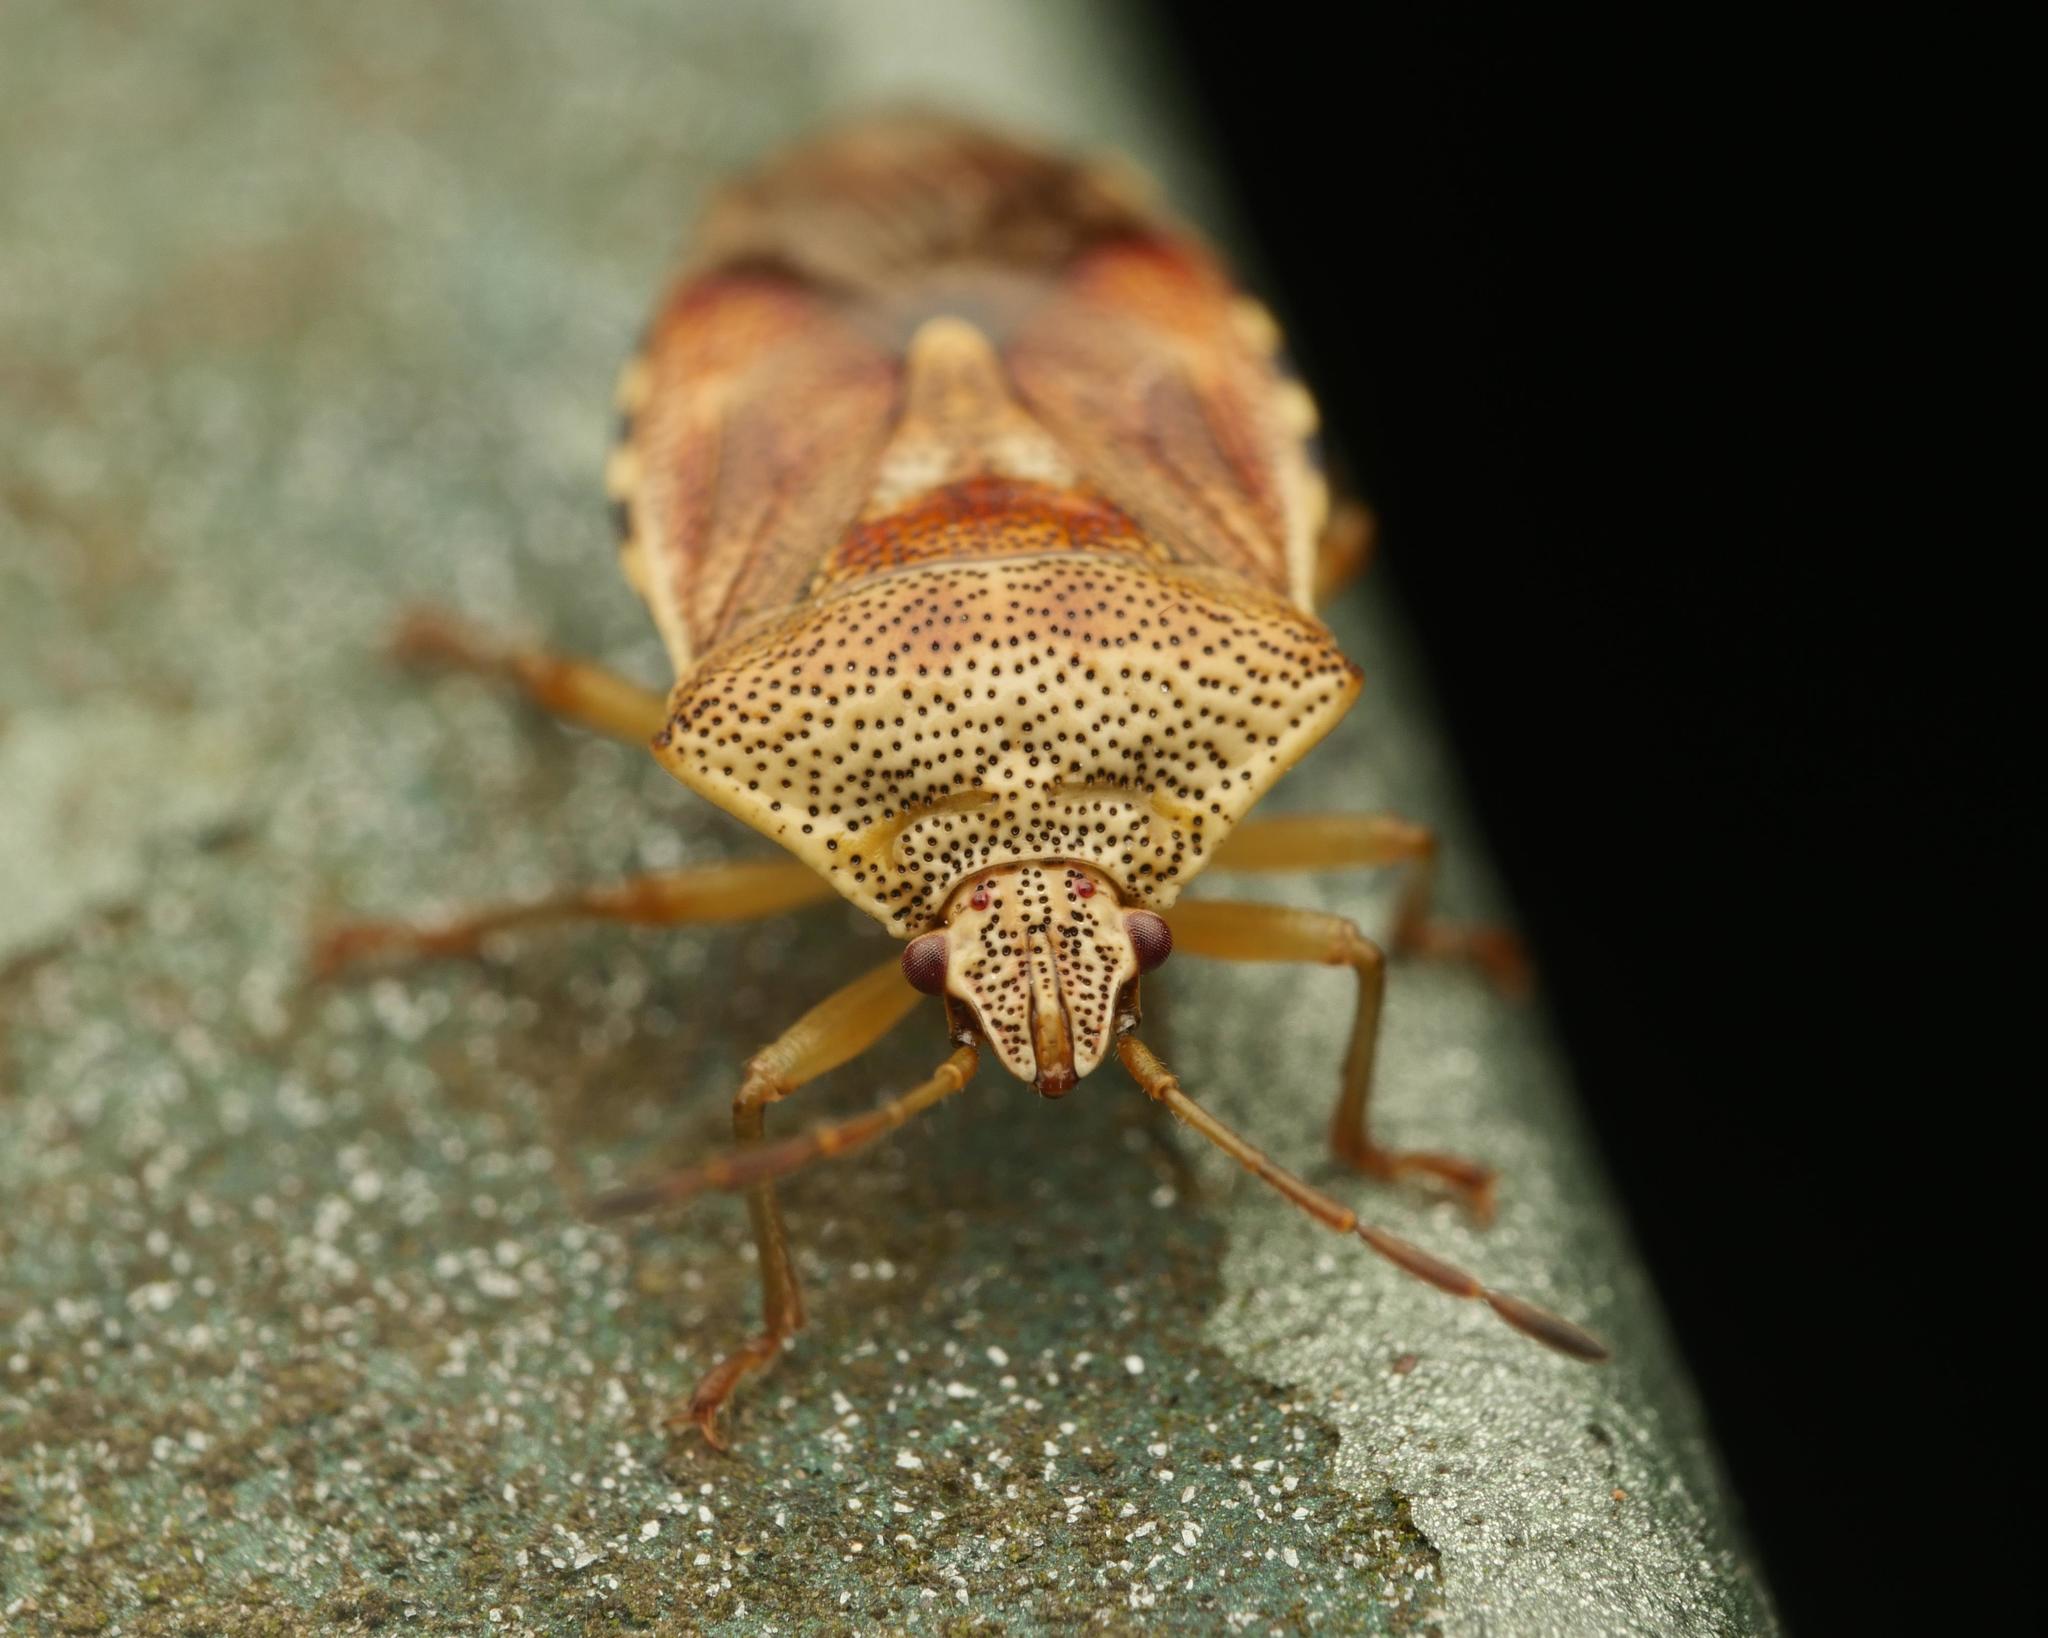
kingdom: Animalia
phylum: Arthropoda
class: Insecta
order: Hemiptera
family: Acanthosomatidae
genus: Elasmucha
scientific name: Elasmucha grisea
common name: Parent bug
